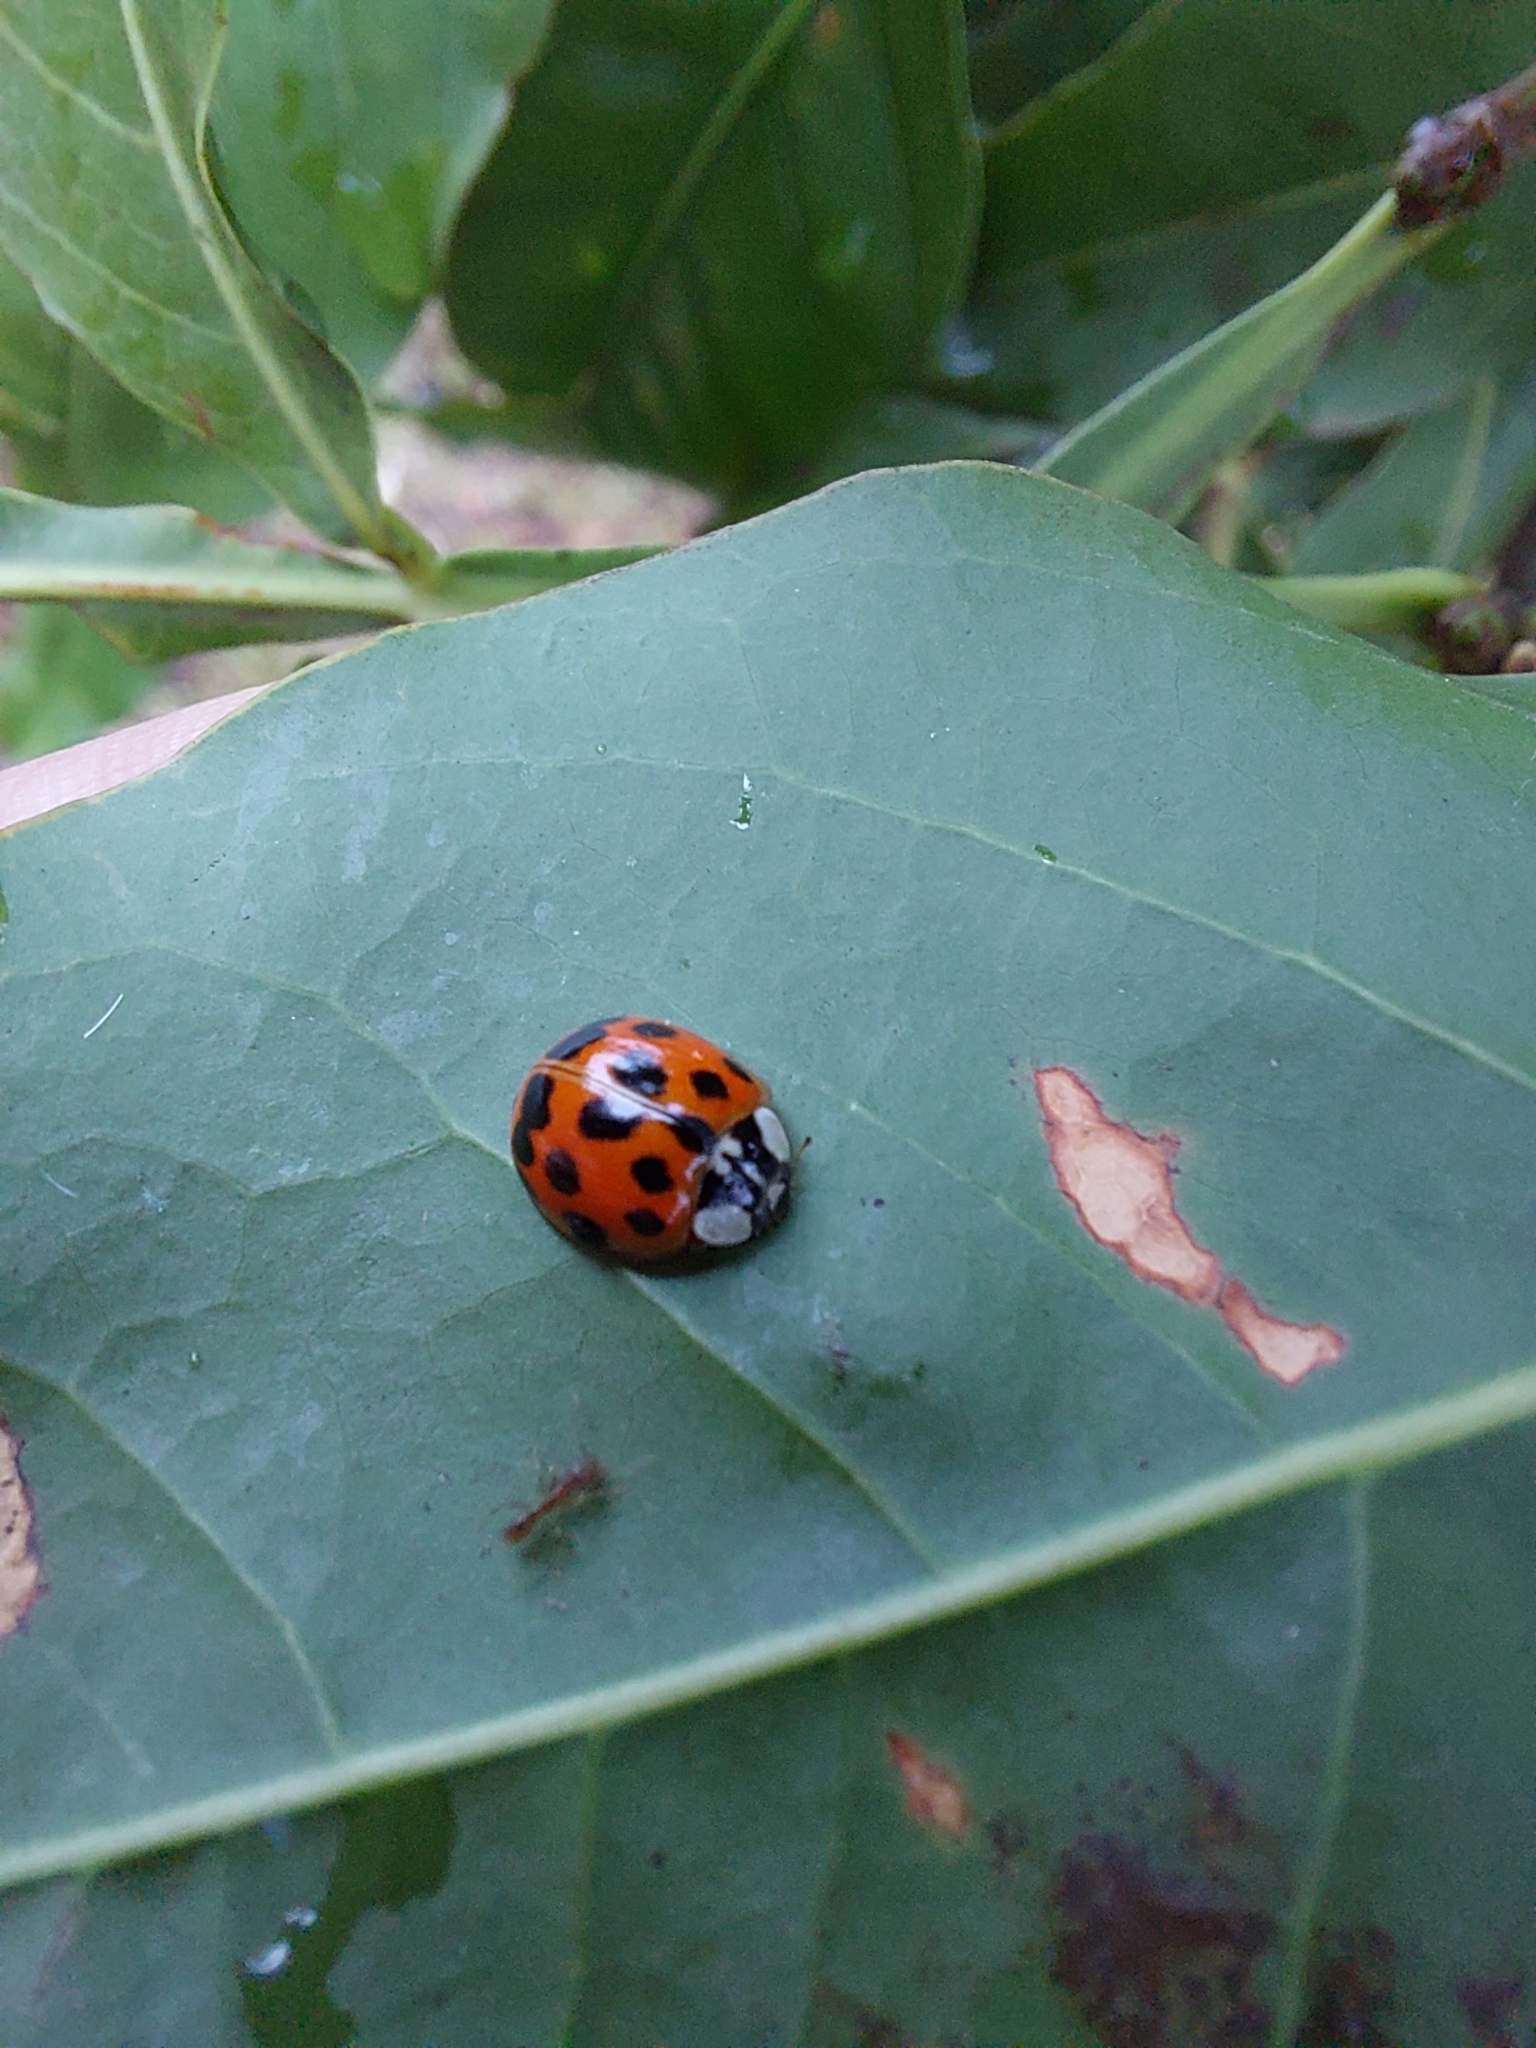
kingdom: Animalia
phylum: Arthropoda
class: Insecta
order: Coleoptera
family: Coccinellidae
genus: Harmonia
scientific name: Harmonia axyridis
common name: Harlequin ladybird
